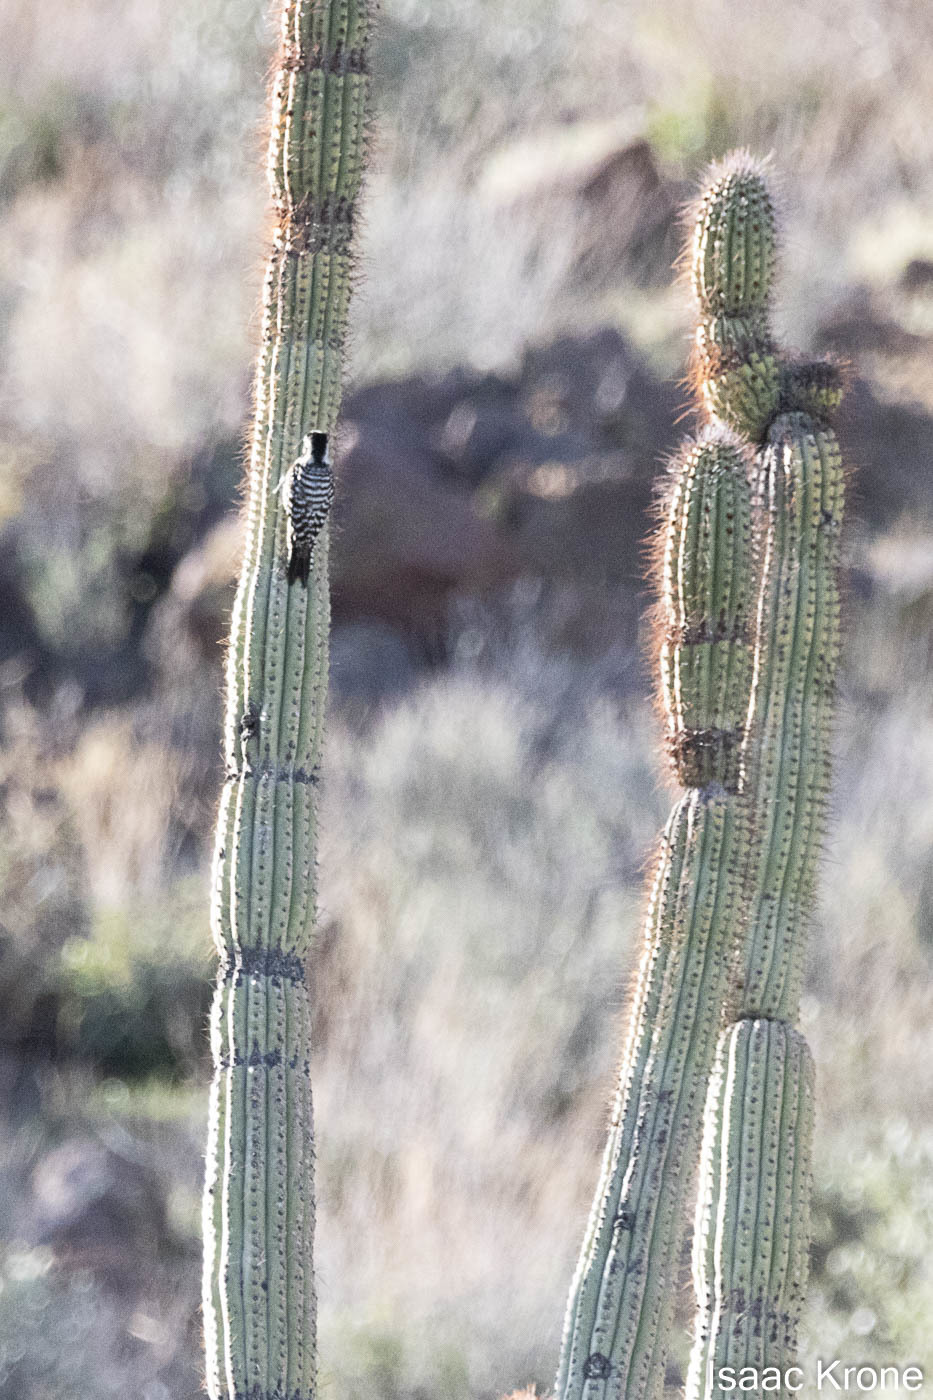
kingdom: Animalia
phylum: Chordata
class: Aves
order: Piciformes
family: Picidae
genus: Dryobates
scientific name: Dryobates scalaris
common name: Ladder-backed woodpecker
